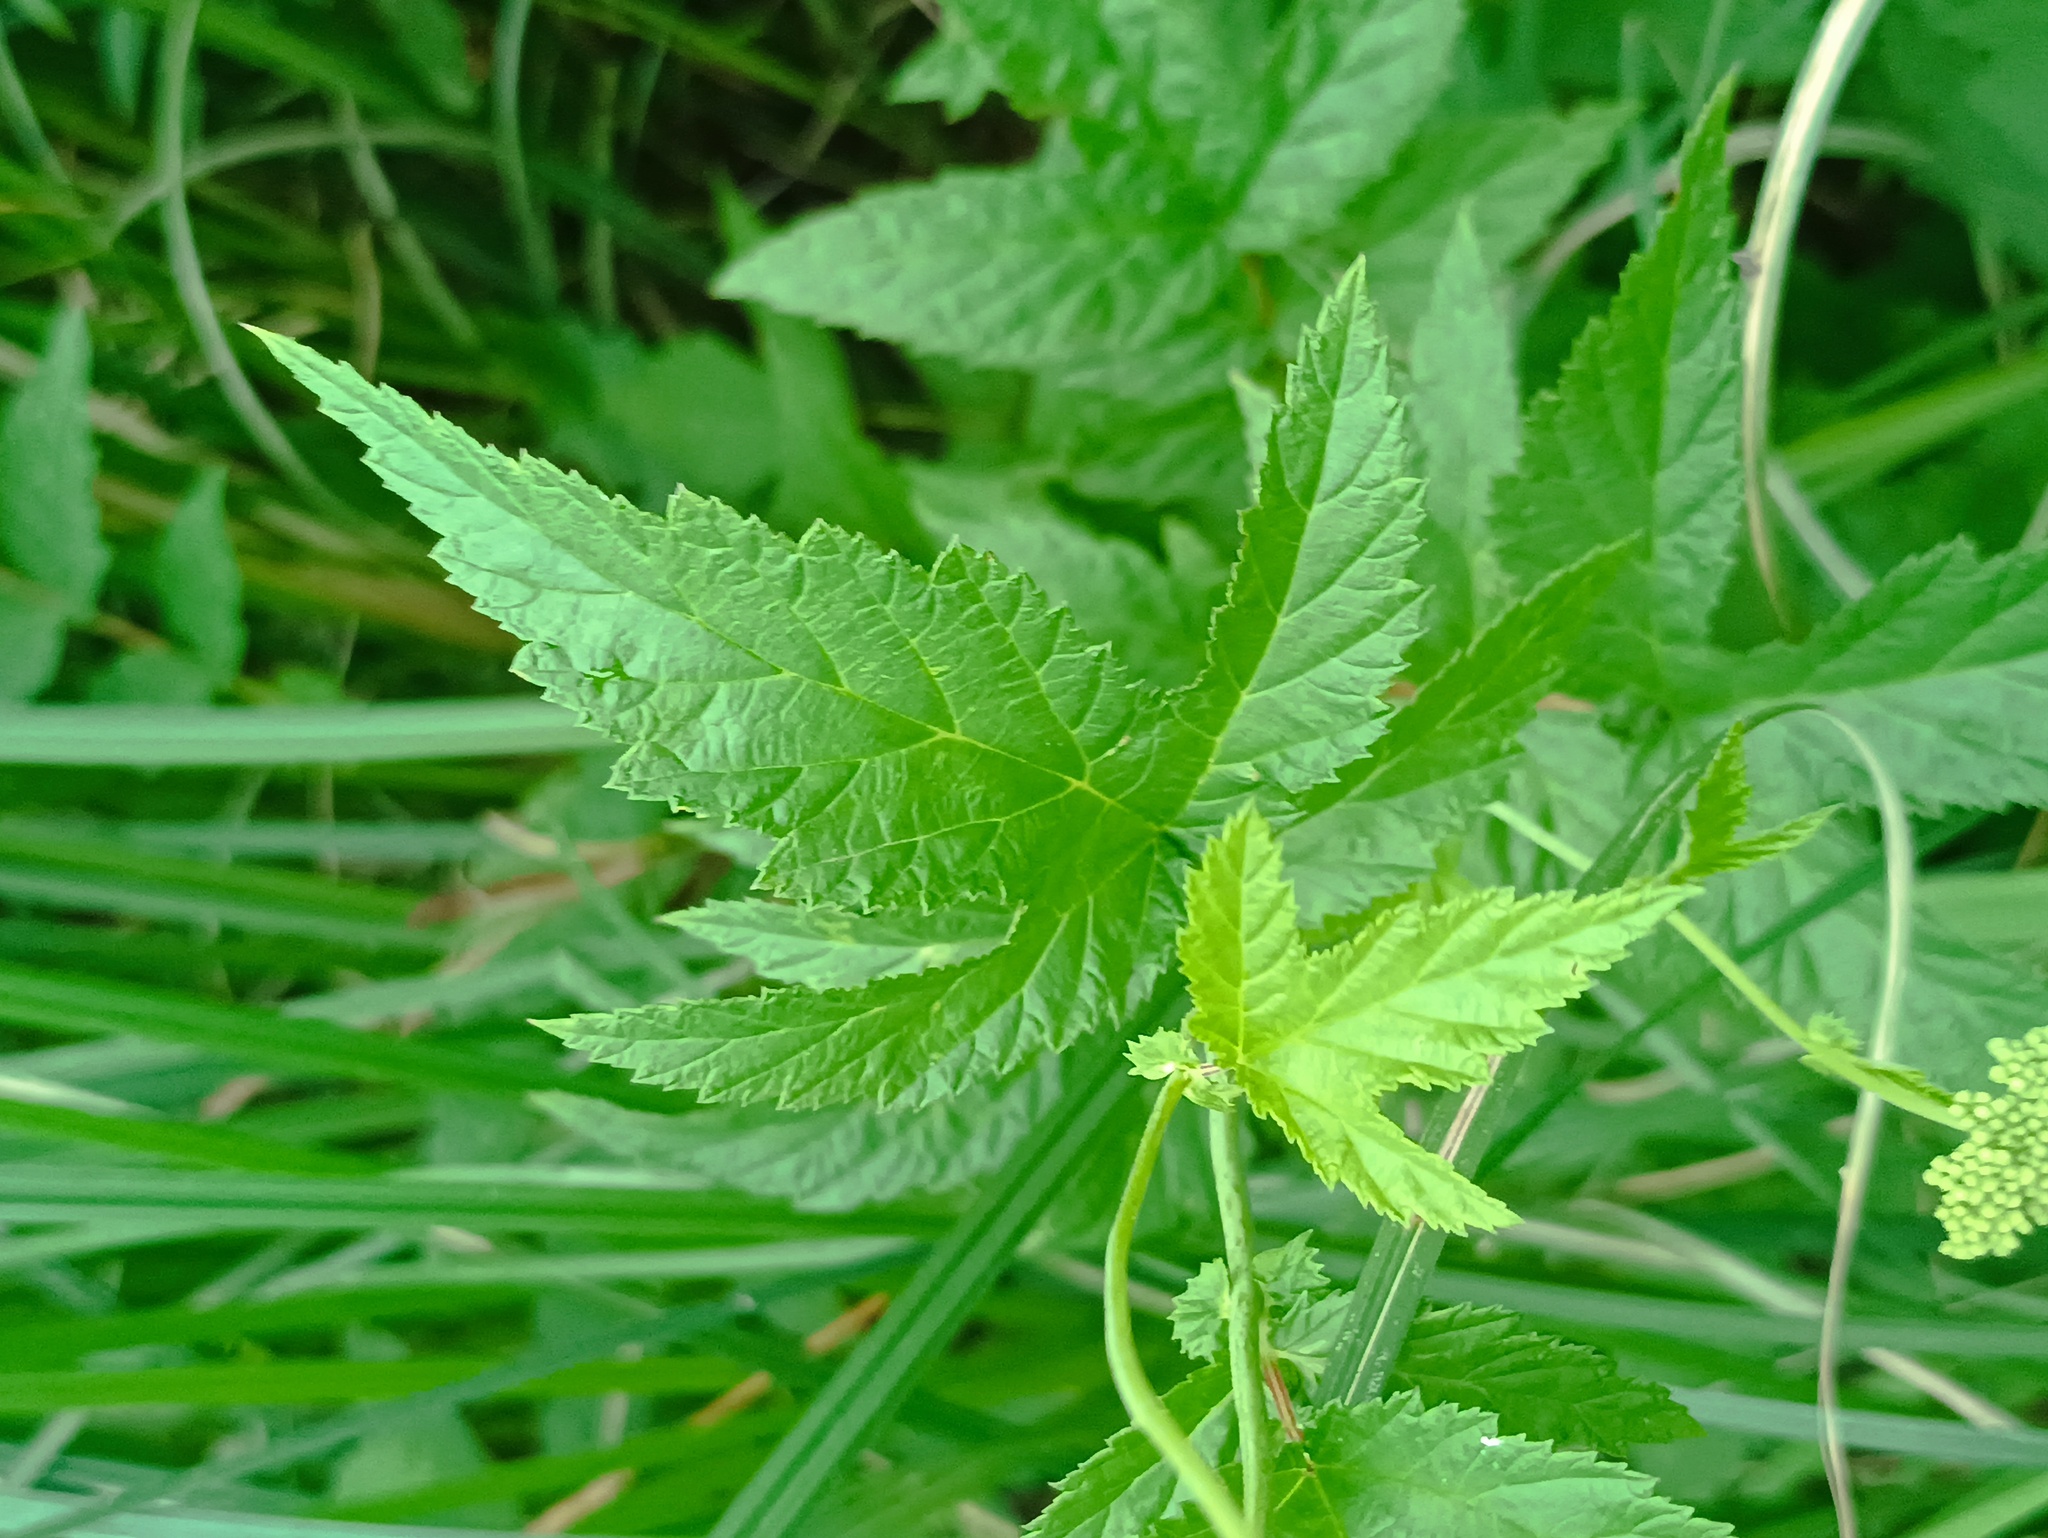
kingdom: Plantae
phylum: Tracheophyta
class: Magnoliopsida
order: Rosales
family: Rosaceae
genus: Filipendula
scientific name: Filipendula ulmaria
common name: Meadowsweet
